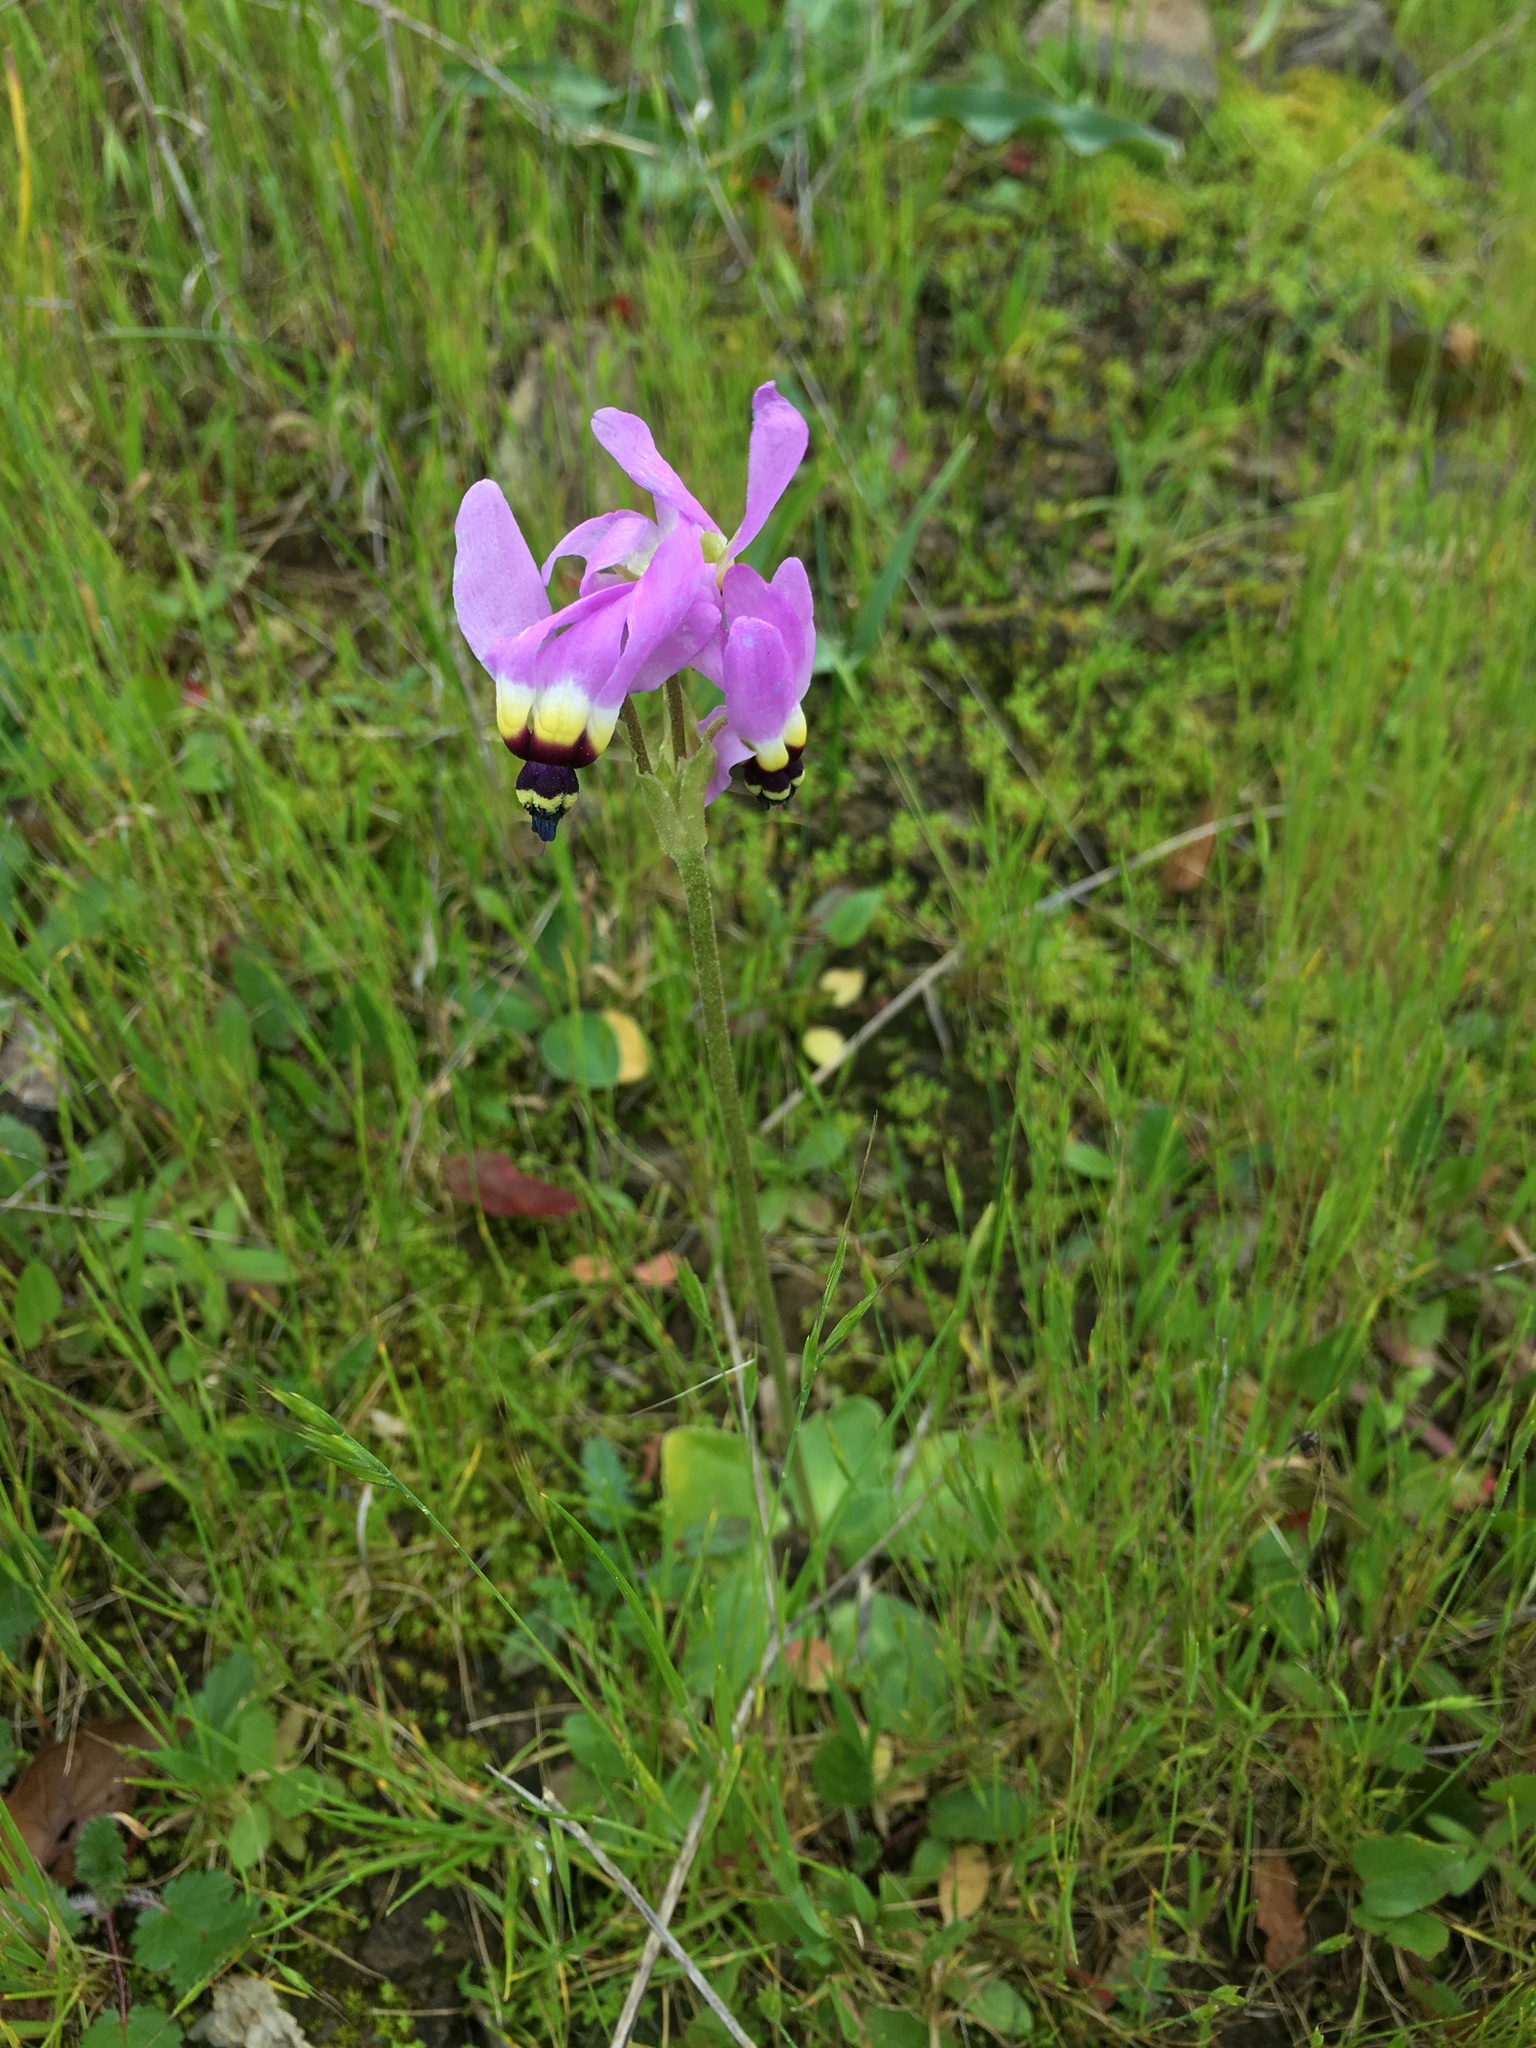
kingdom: Plantae
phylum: Tracheophyta
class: Magnoliopsida
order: Ericales
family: Primulaceae
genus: Dodecatheon
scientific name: Dodecatheon clevelandii
